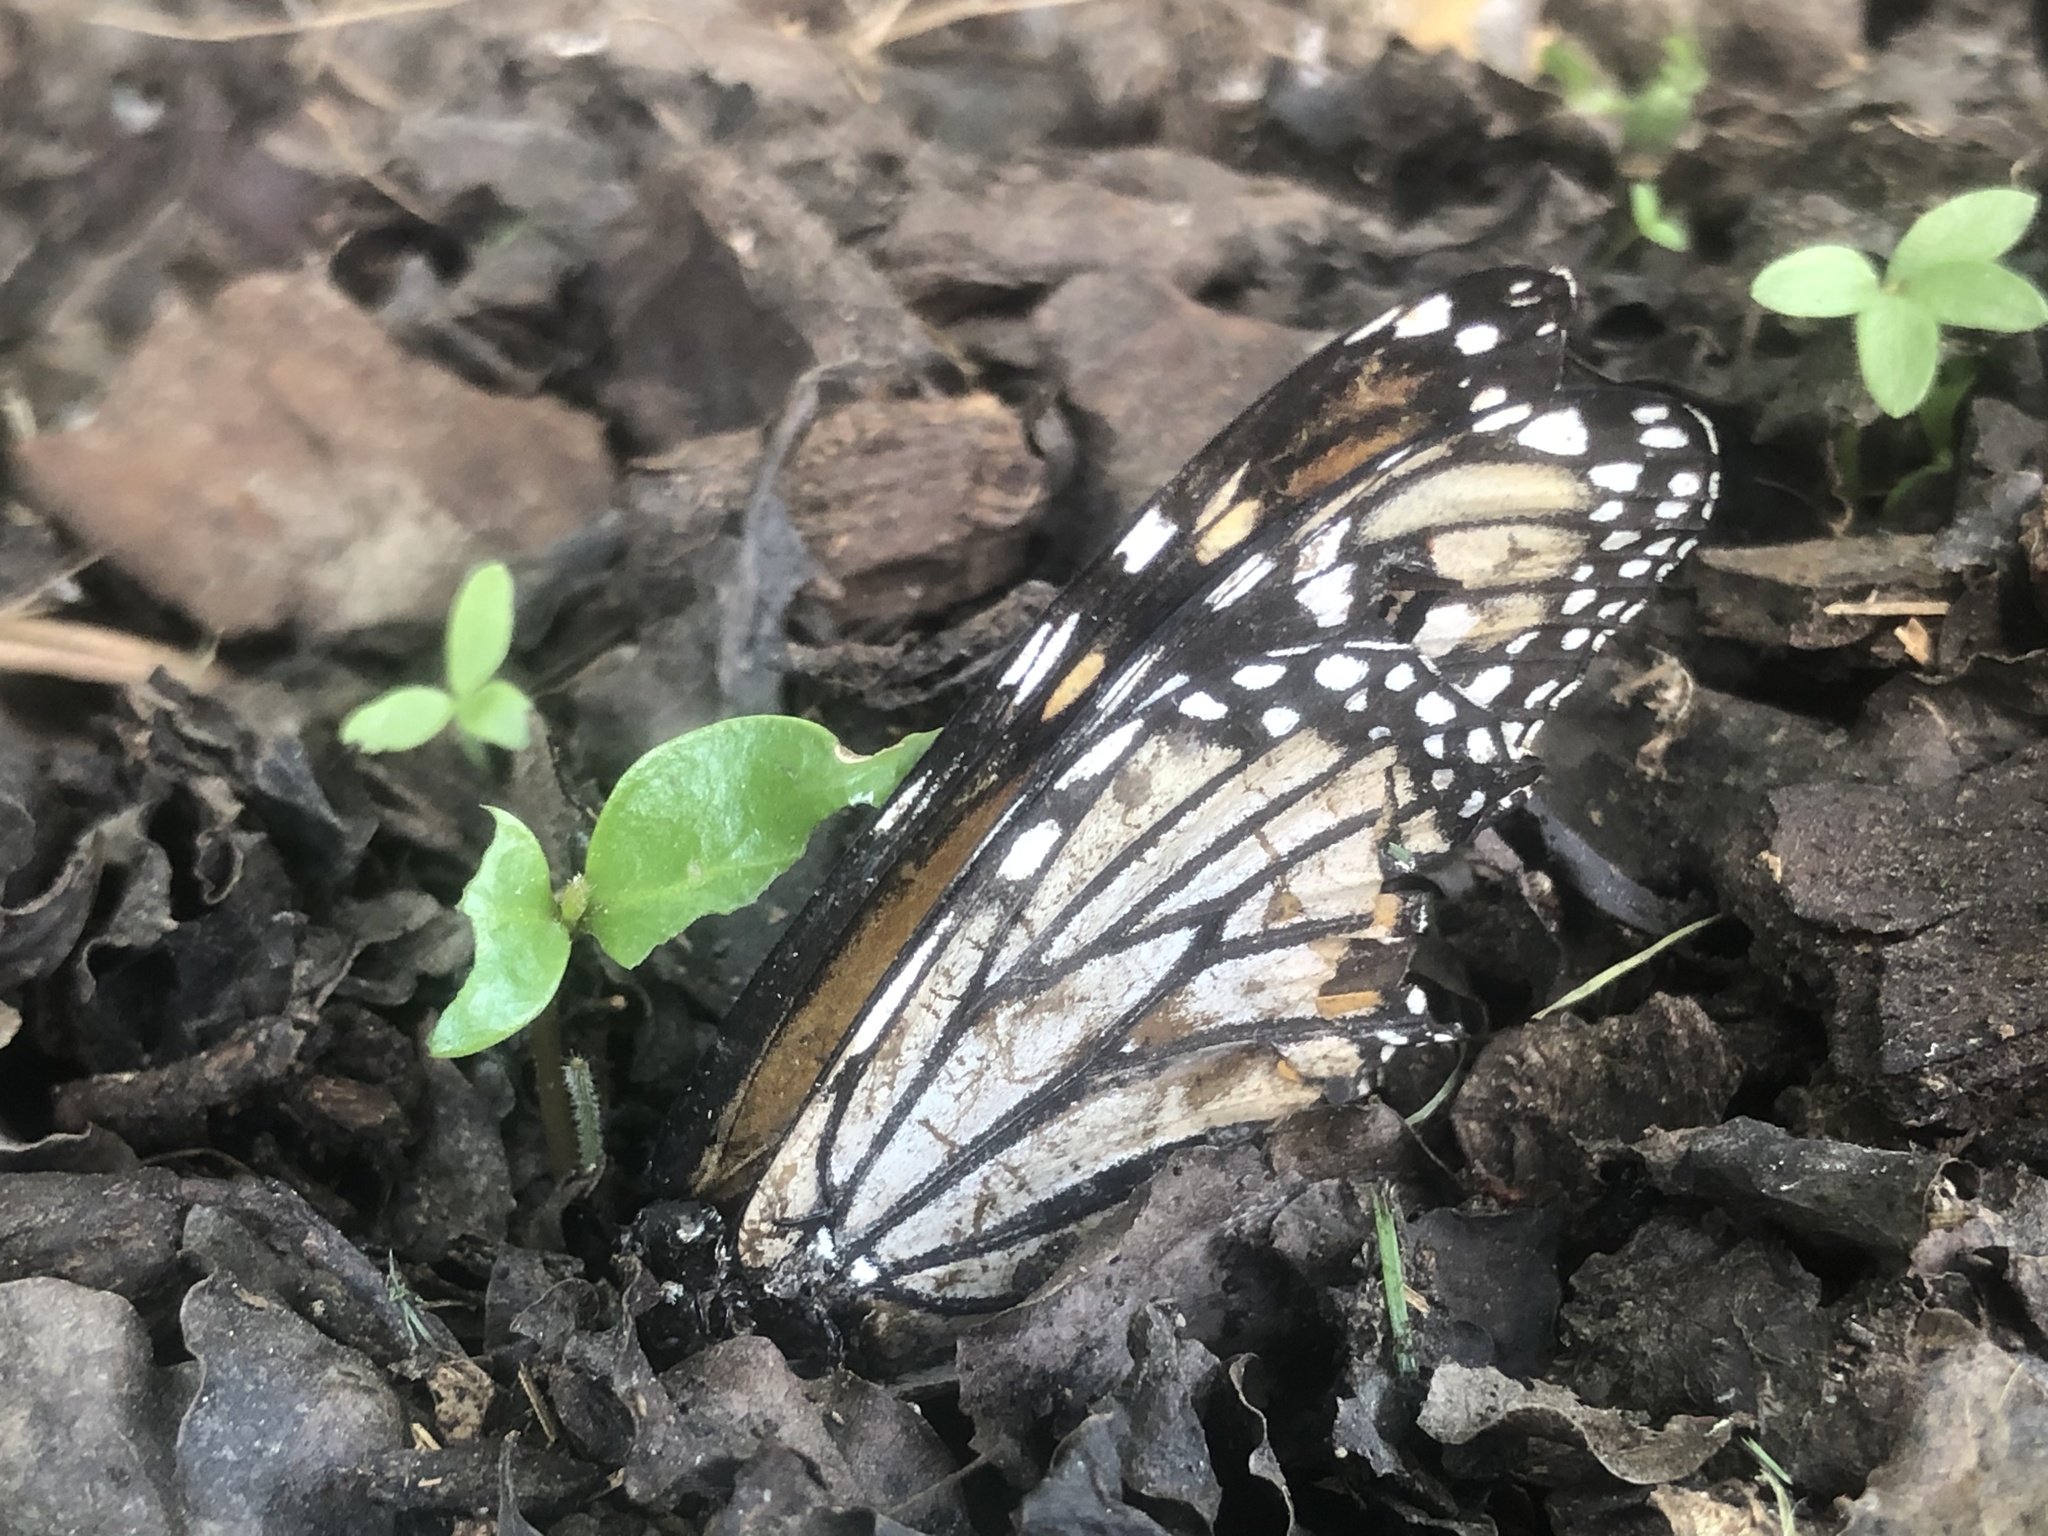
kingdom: Animalia
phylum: Arthropoda
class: Insecta
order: Lepidoptera
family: Nymphalidae
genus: Danaus
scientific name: Danaus plexippus
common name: Monarch
